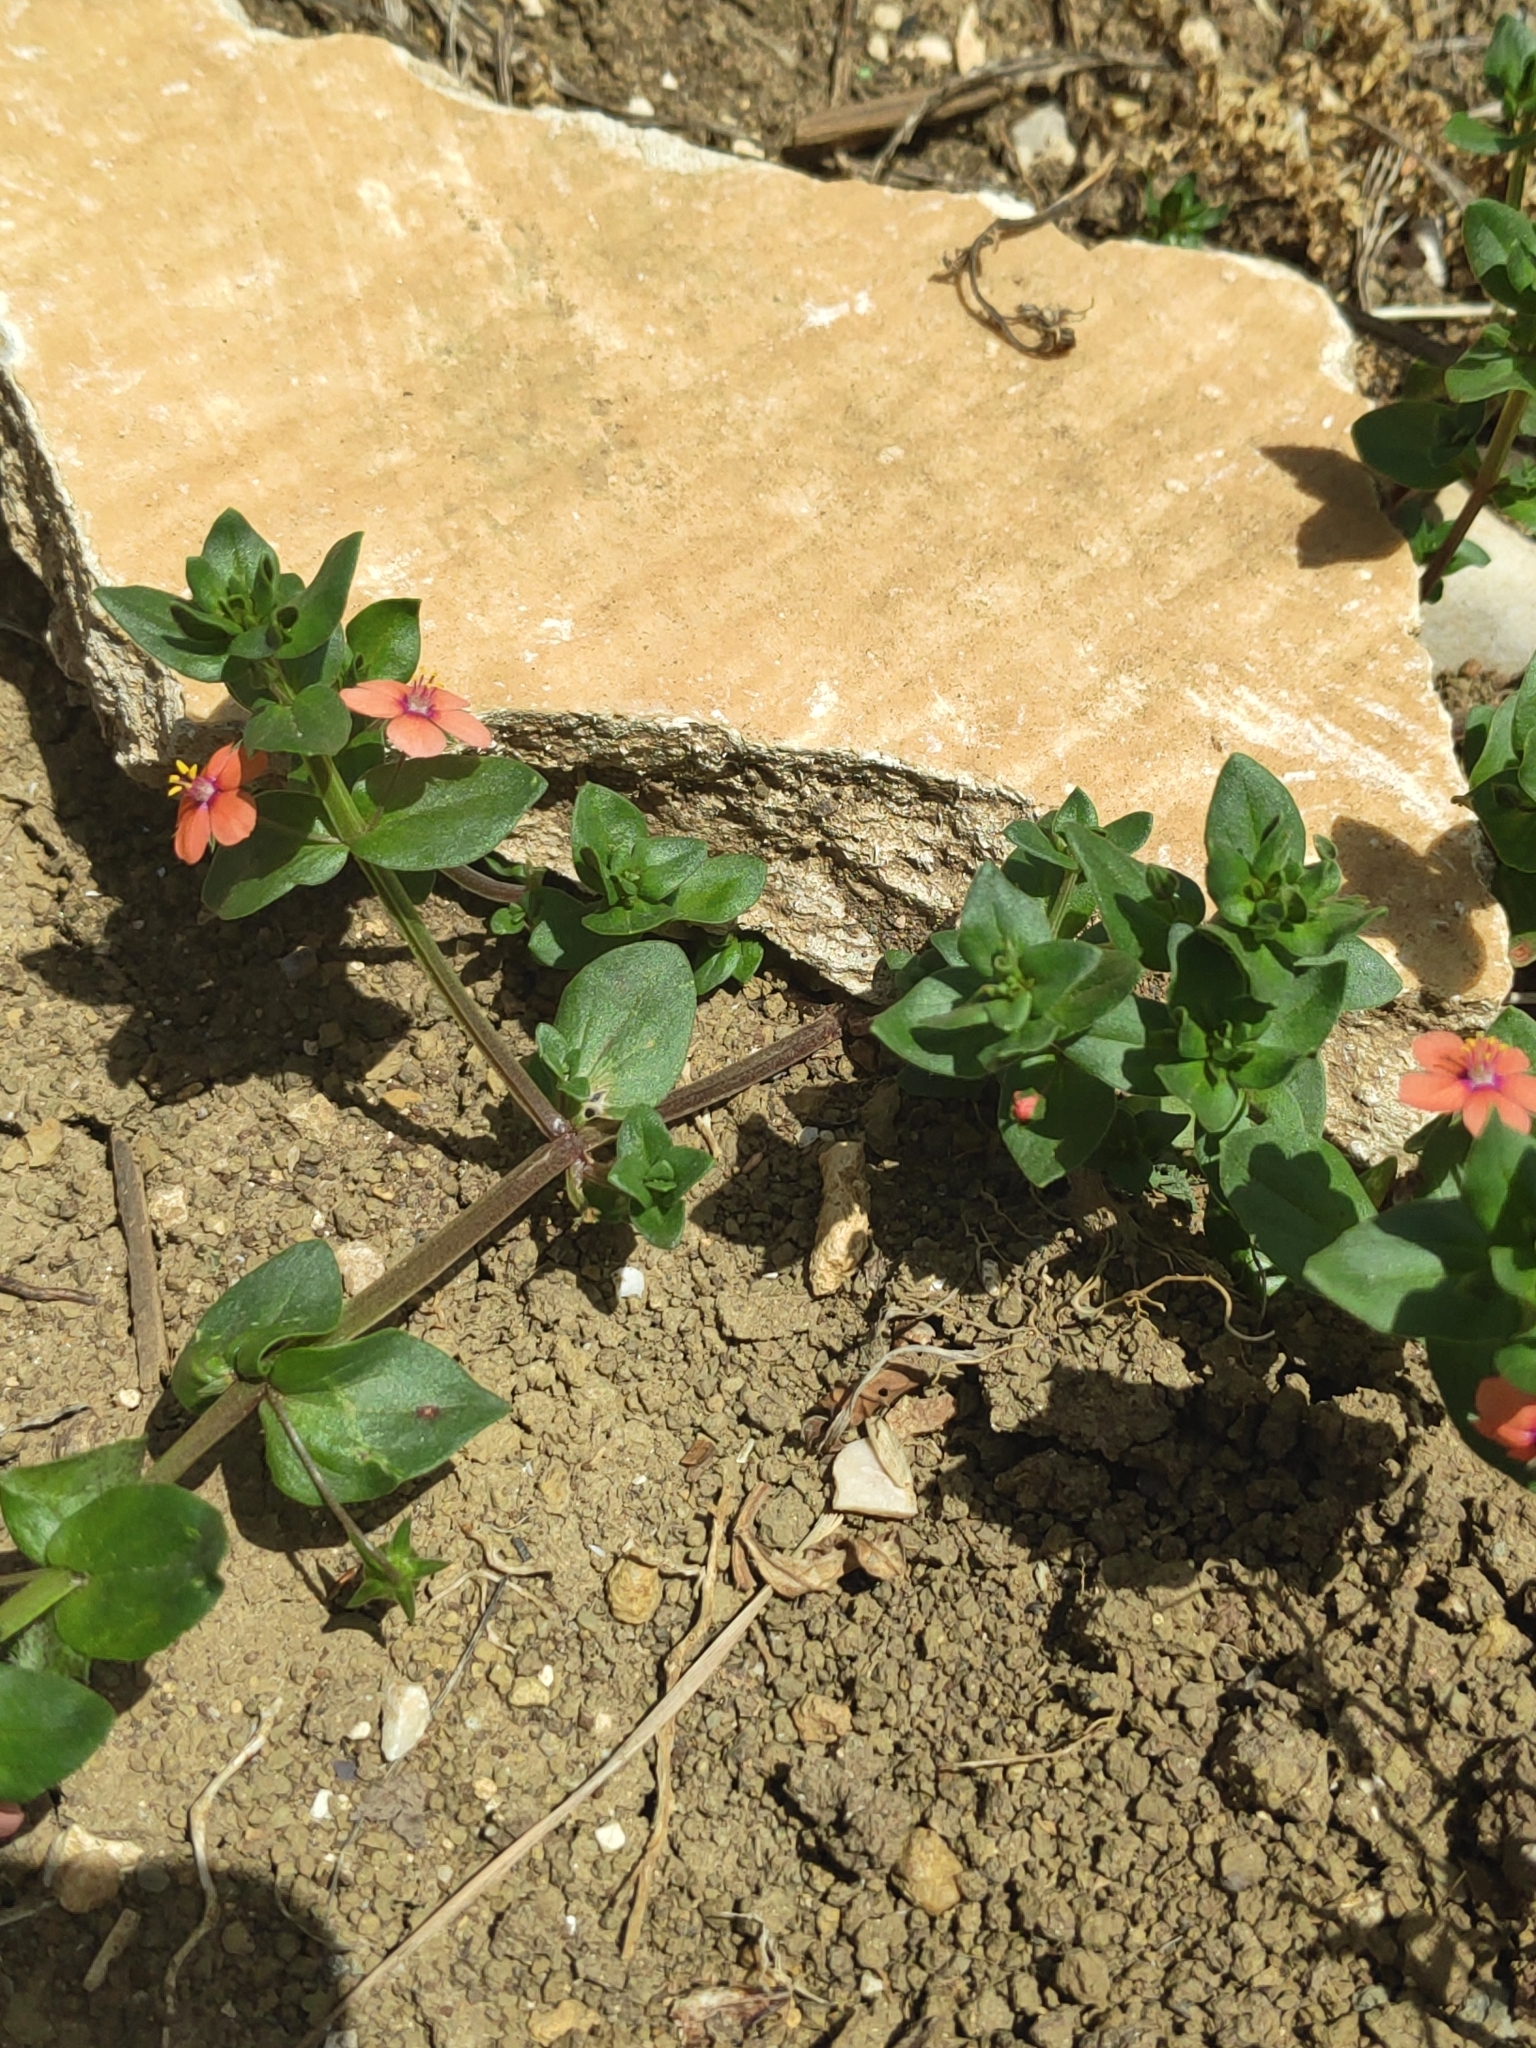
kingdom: Plantae
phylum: Tracheophyta
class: Magnoliopsida
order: Ericales
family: Primulaceae
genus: Lysimachia
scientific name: Lysimachia arvensis
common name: Scarlet pimpernel
